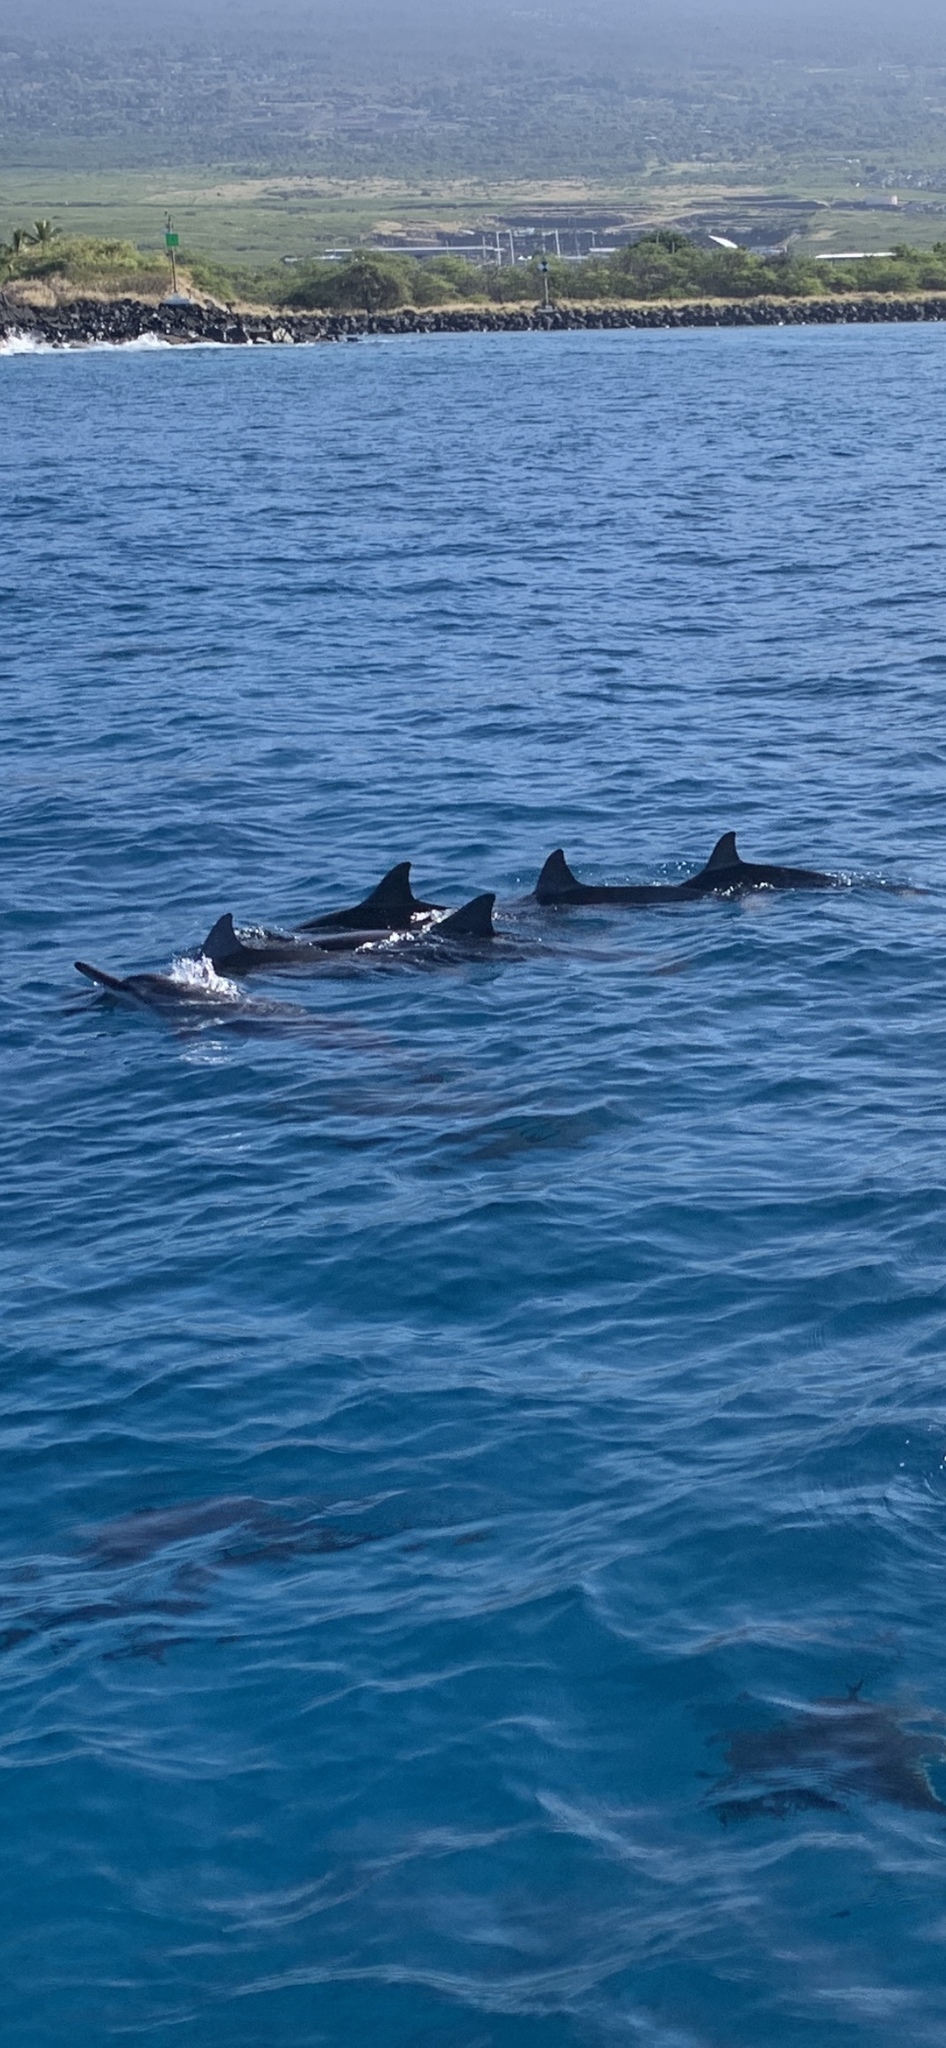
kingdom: Animalia
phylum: Chordata
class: Mammalia
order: Cetacea
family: Delphinidae
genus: Stenella
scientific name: Stenella longirostris
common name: Spinner dolphin
